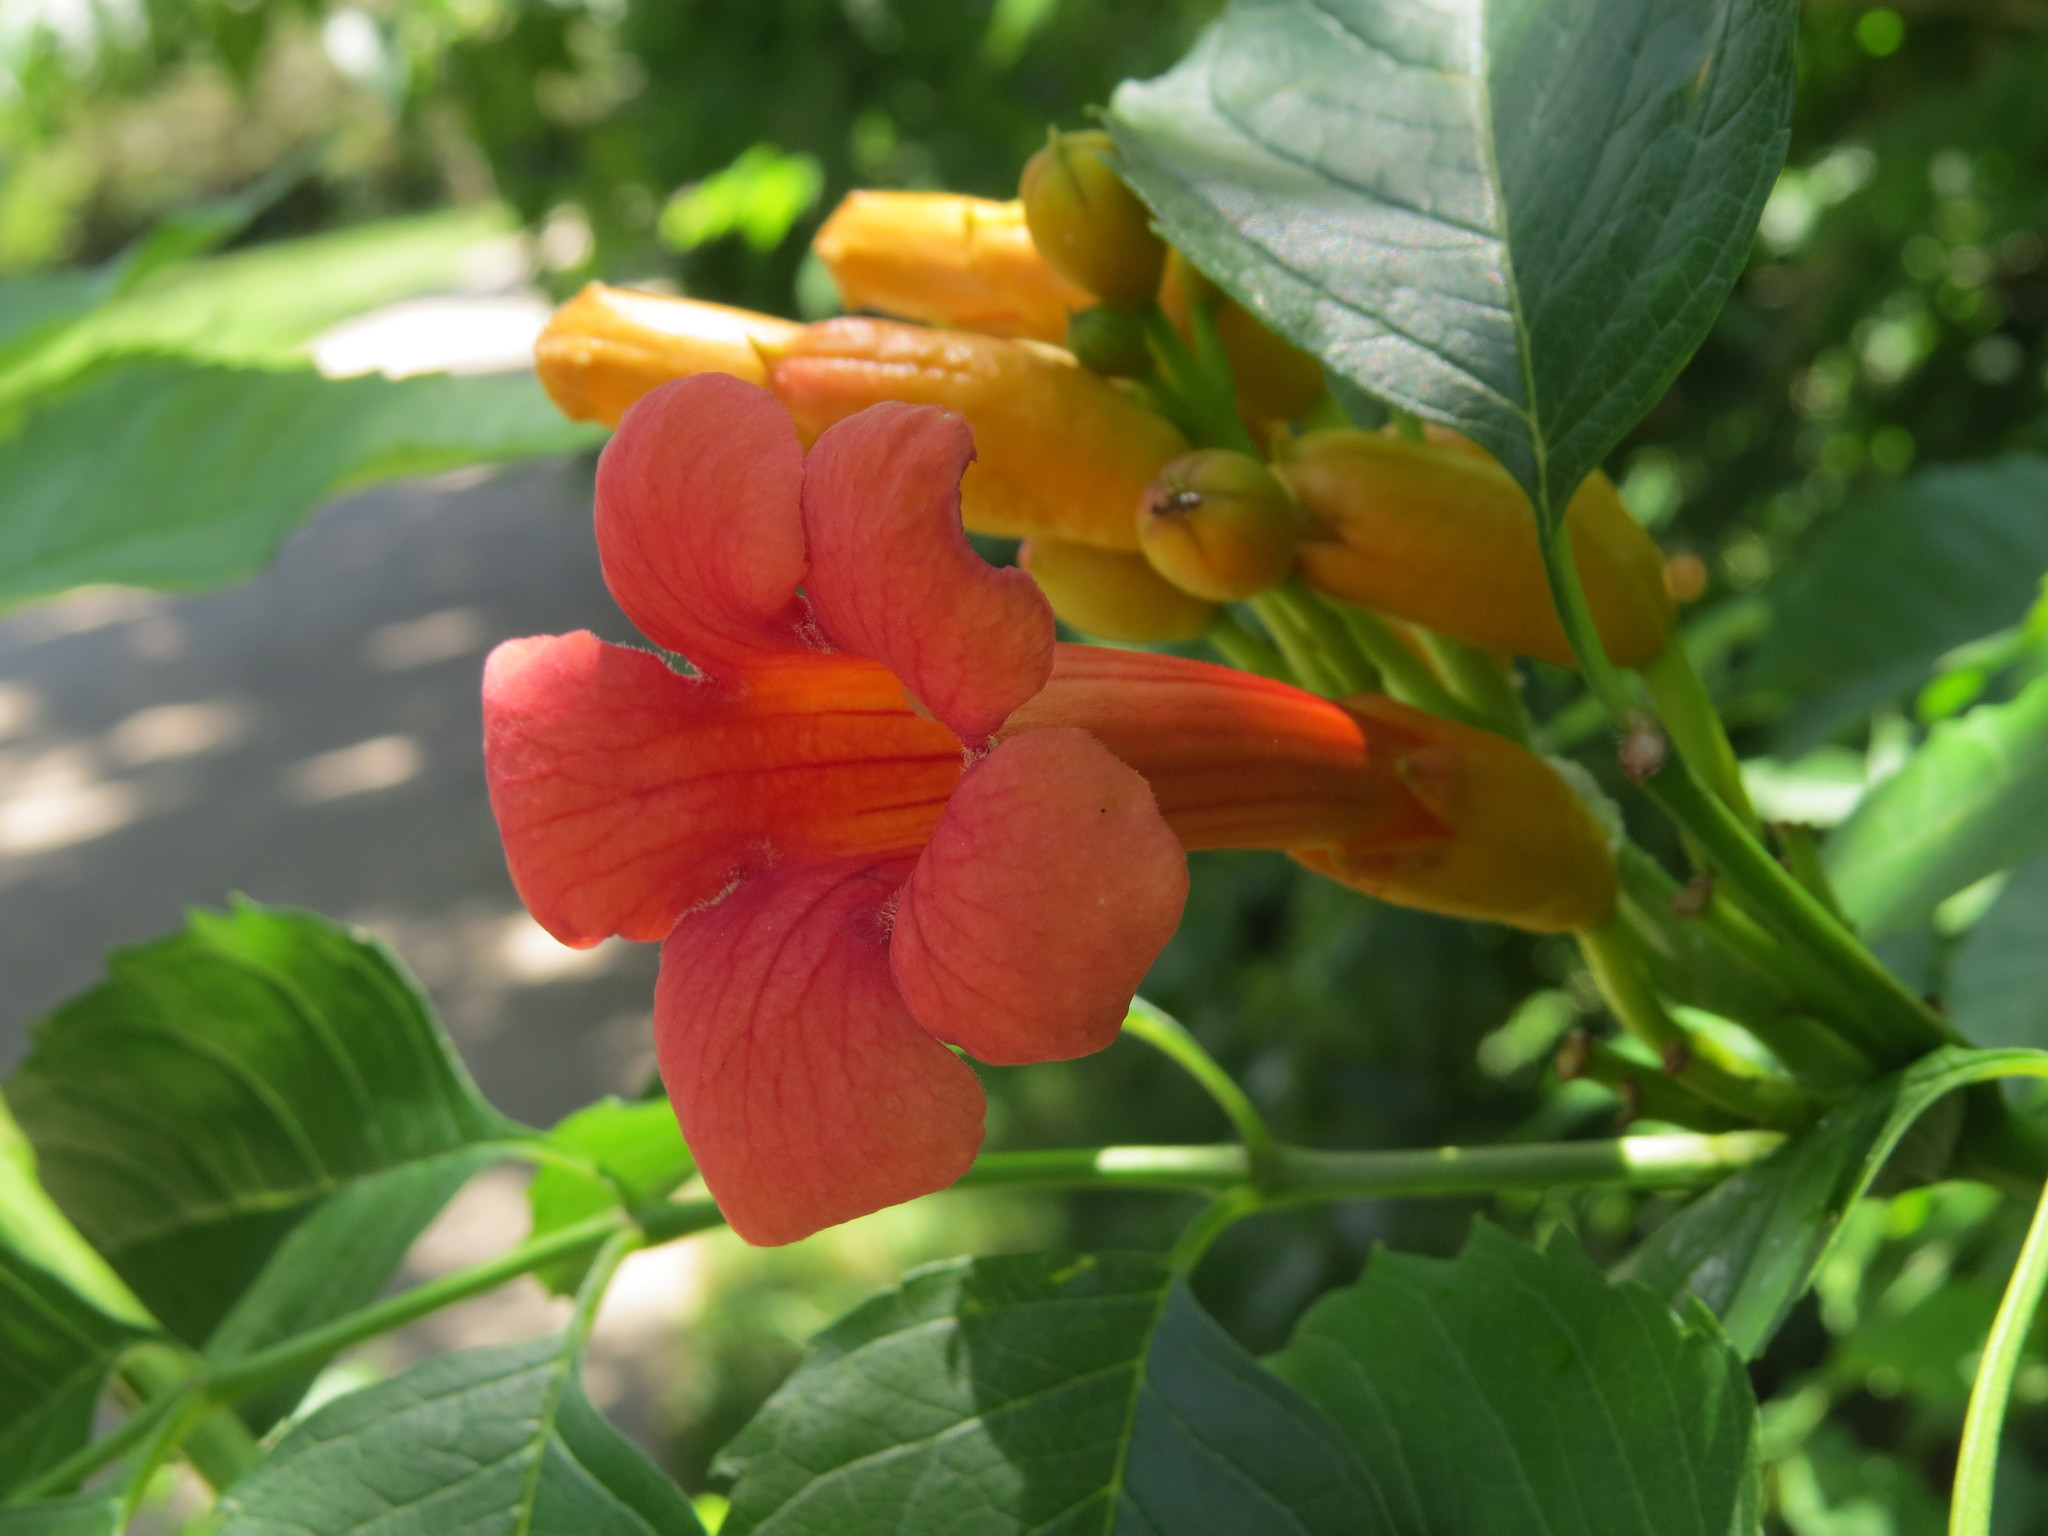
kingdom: Plantae
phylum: Tracheophyta
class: Magnoliopsida
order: Lamiales
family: Bignoniaceae
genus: Campsis
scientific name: Campsis radicans
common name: Trumpet-creeper
